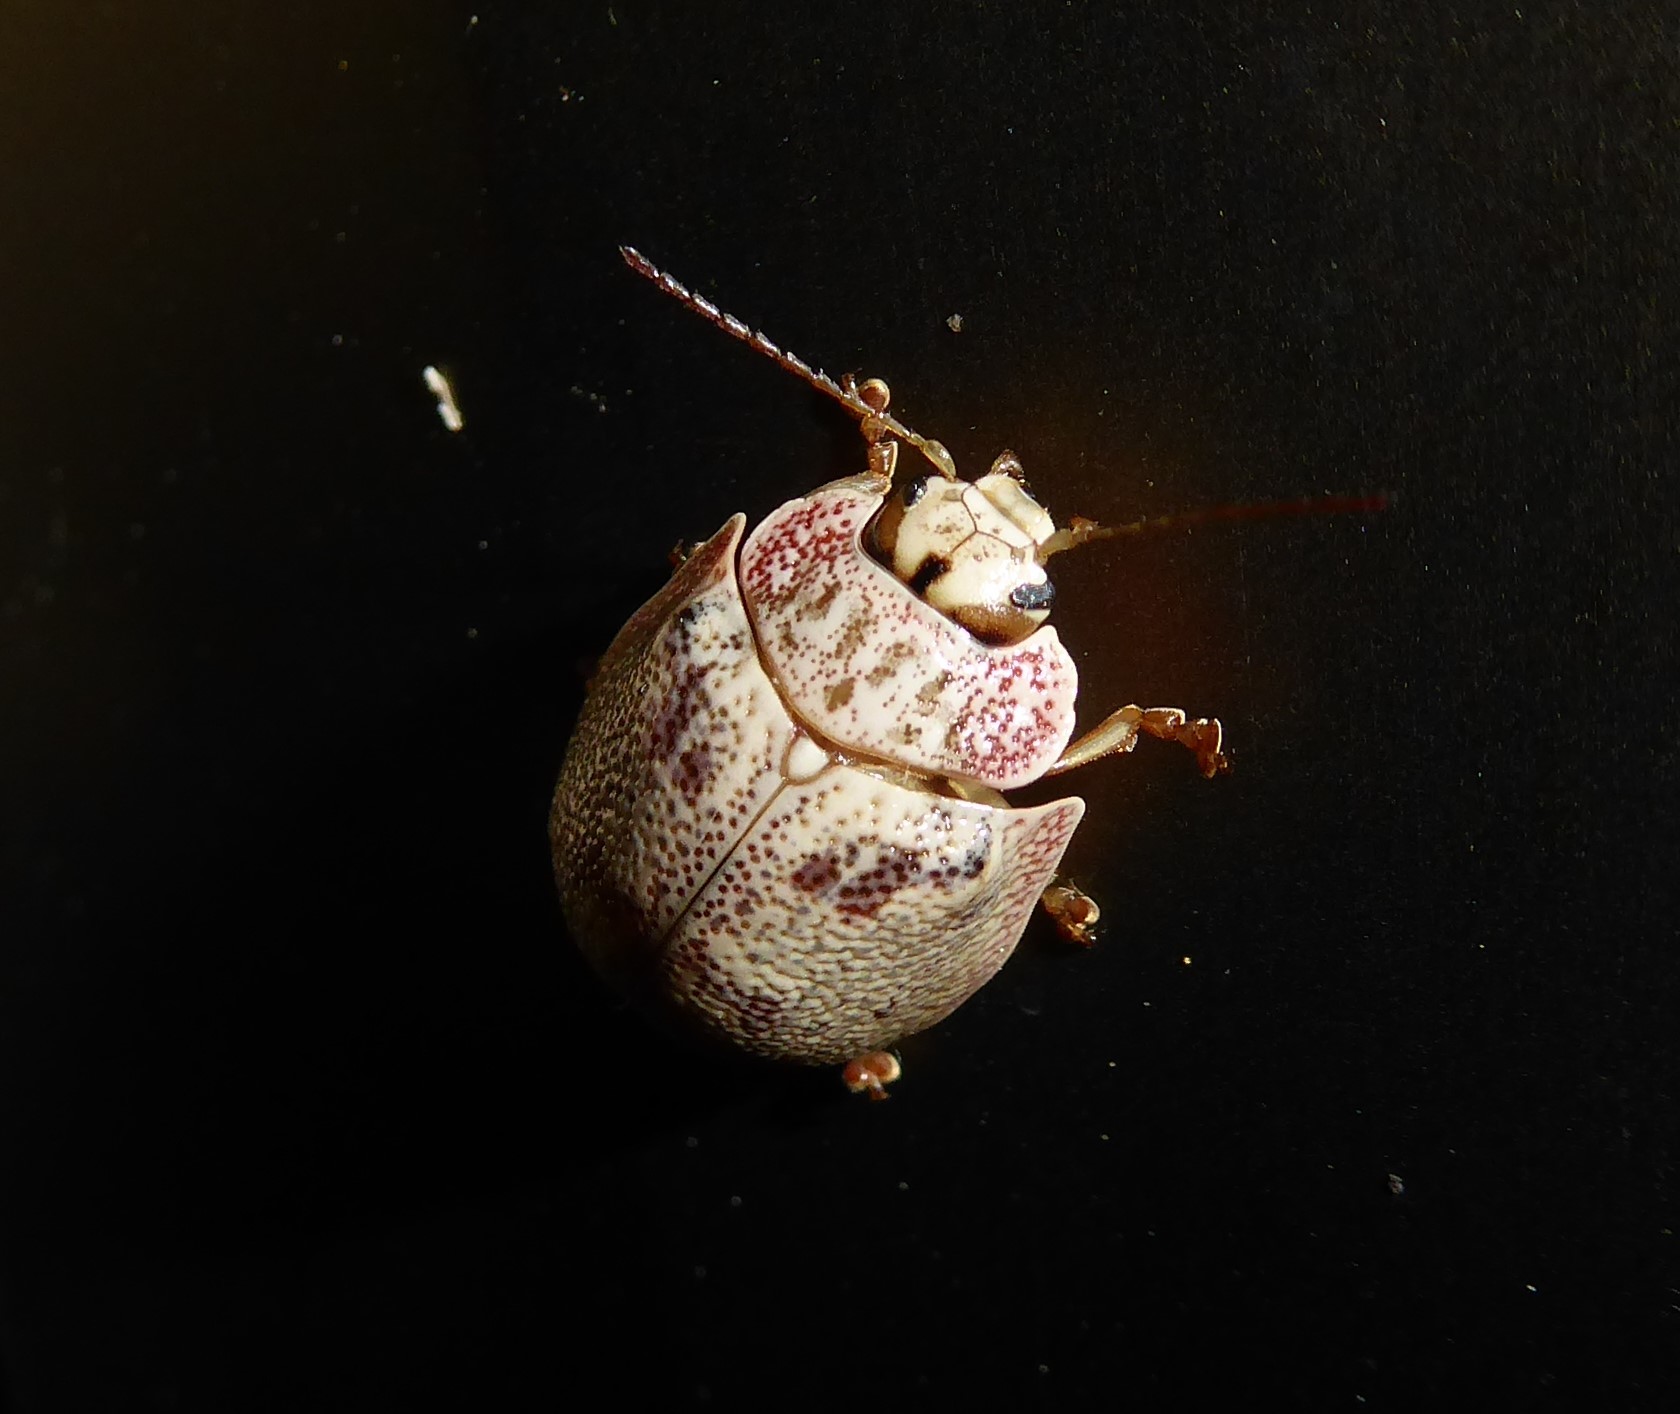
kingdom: Animalia
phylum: Arthropoda
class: Insecta
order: Coleoptera
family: Chrysomelidae
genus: Paropsis
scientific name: Paropsis charybdis
